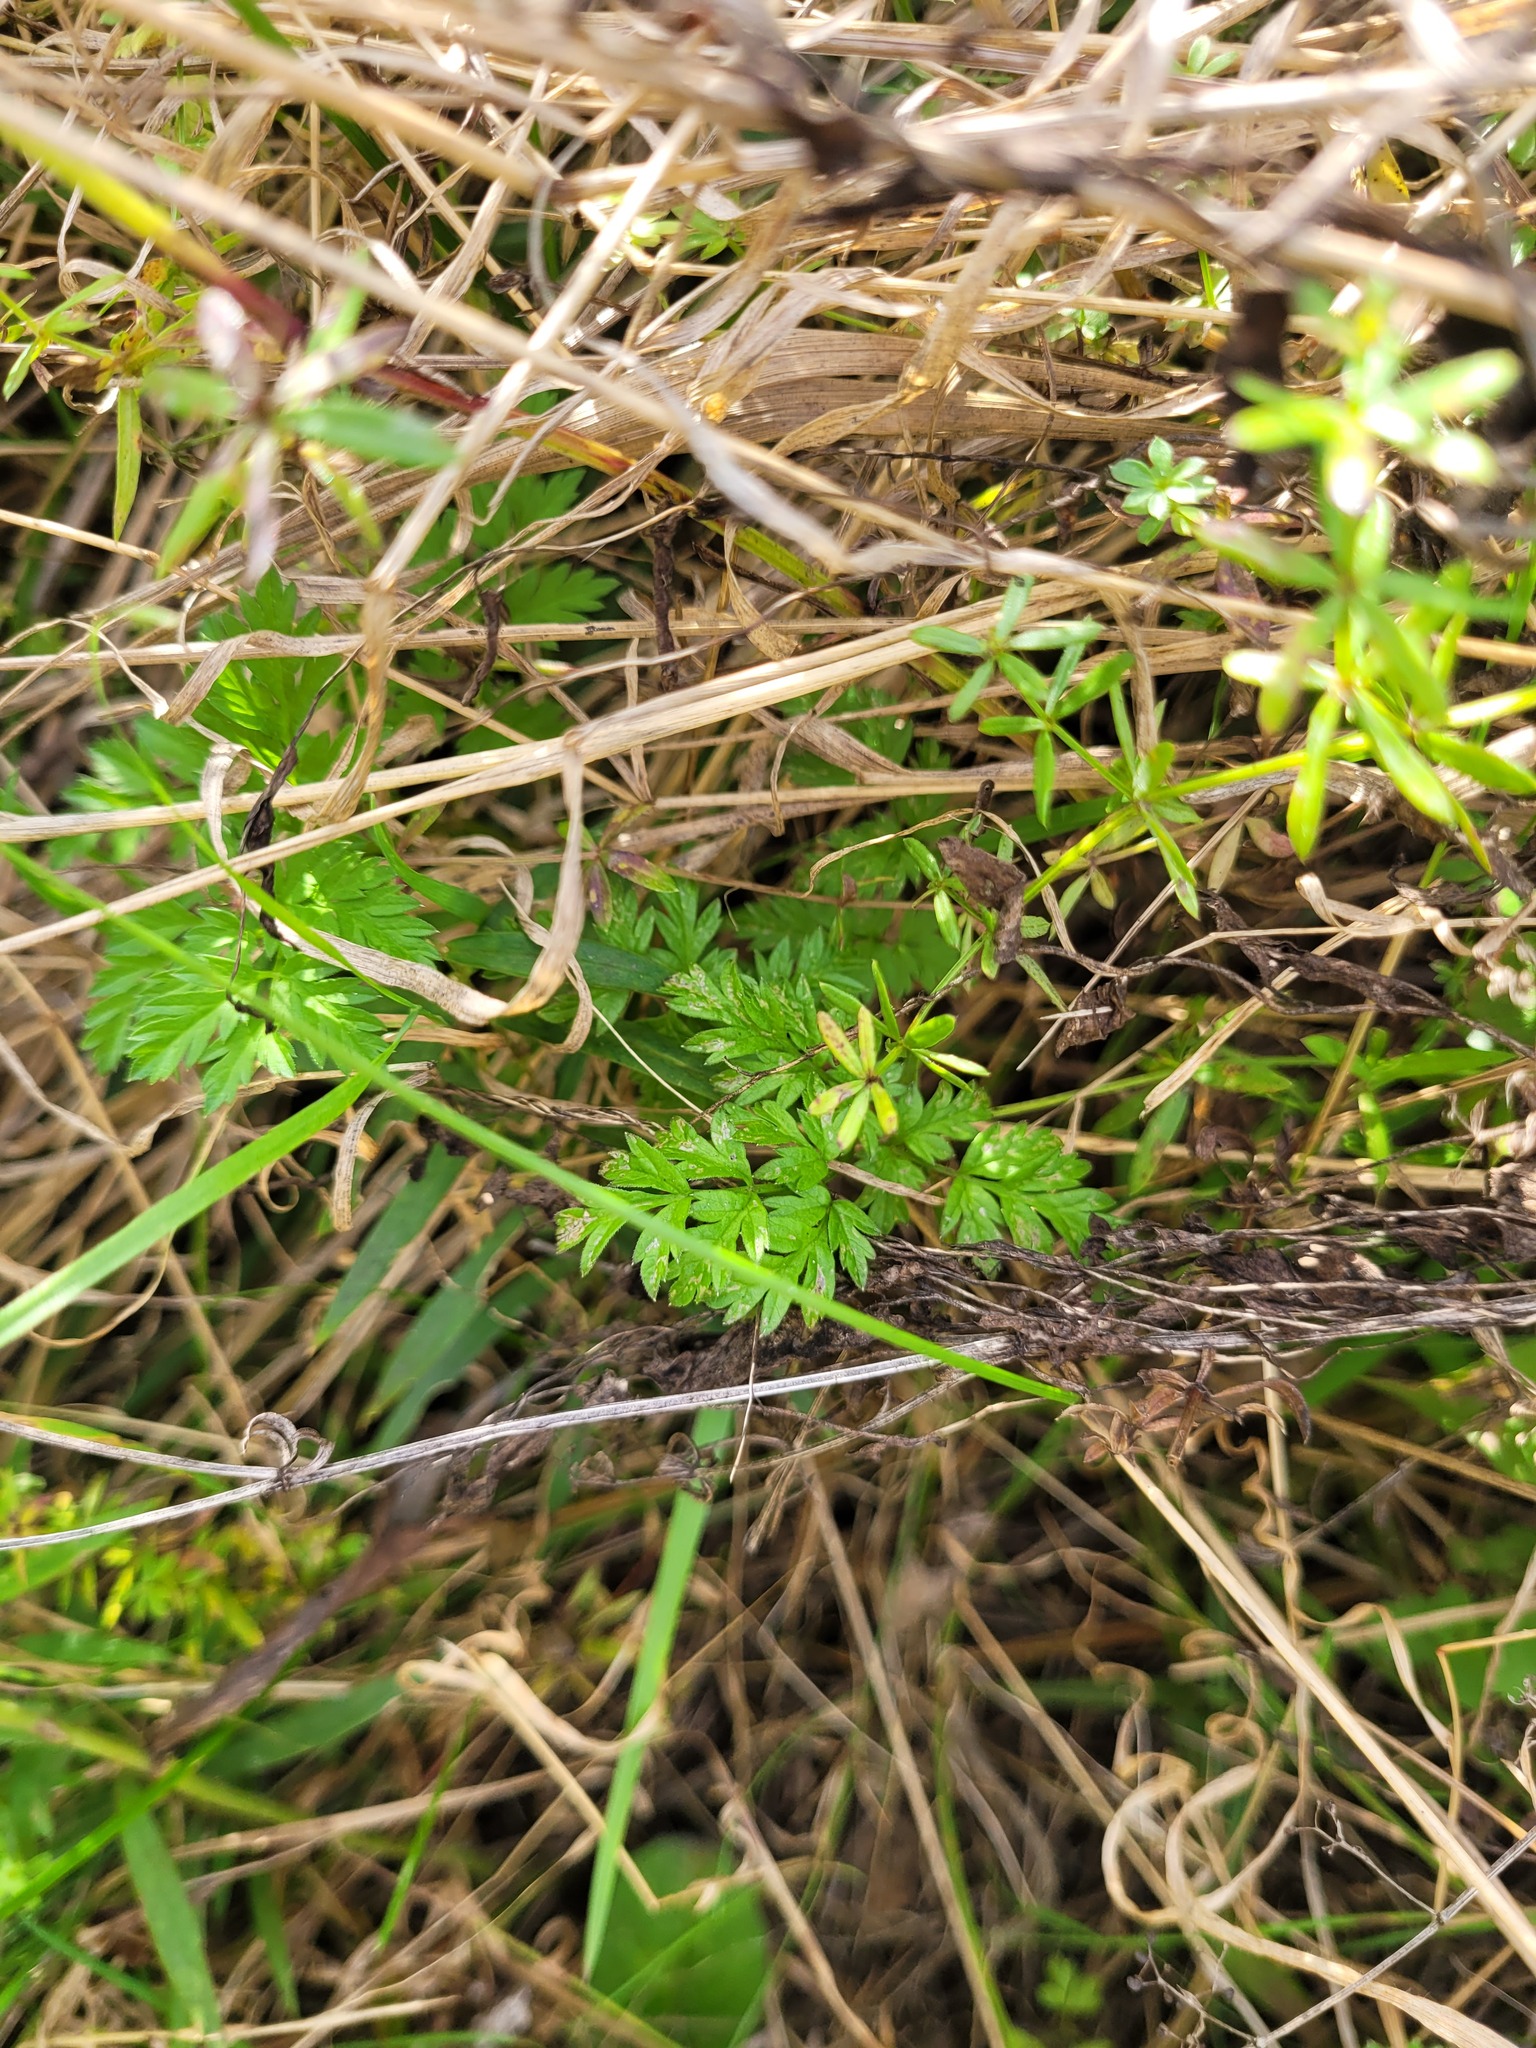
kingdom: Plantae
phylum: Tracheophyta
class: Magnoliopsida
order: Apiales
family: Apiaceae
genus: Anthriscus
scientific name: Anthriscus sylvestris
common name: Cow parsley
